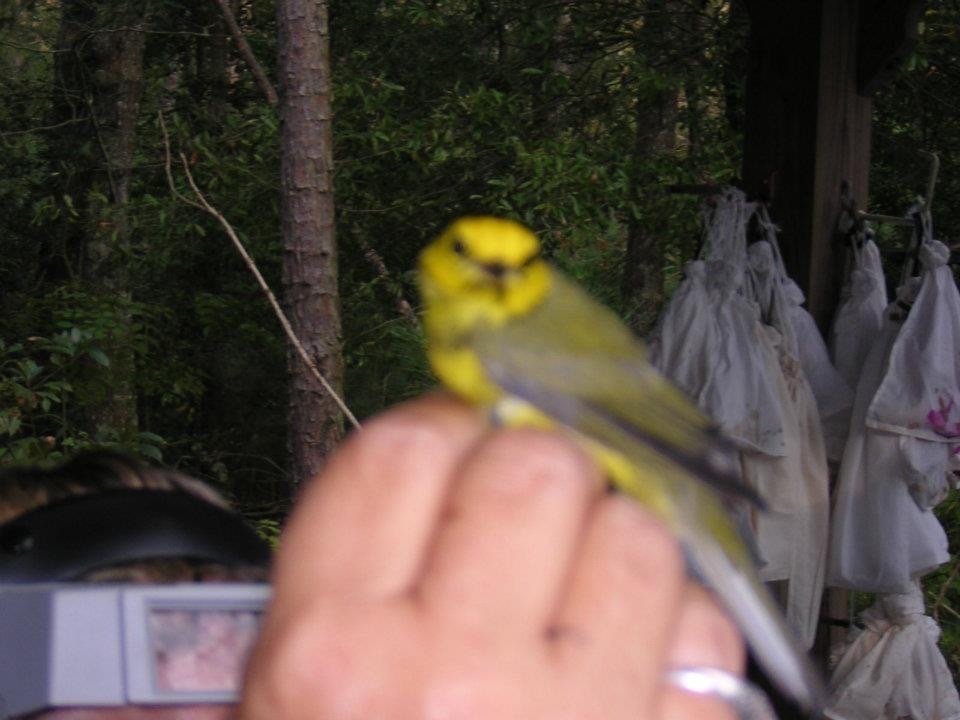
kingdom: Animalia
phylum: Chordata
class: Aves
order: Passeriformes
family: Parulidae
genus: Setophaga
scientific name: Setophaga citrina
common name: Hooded warbler
